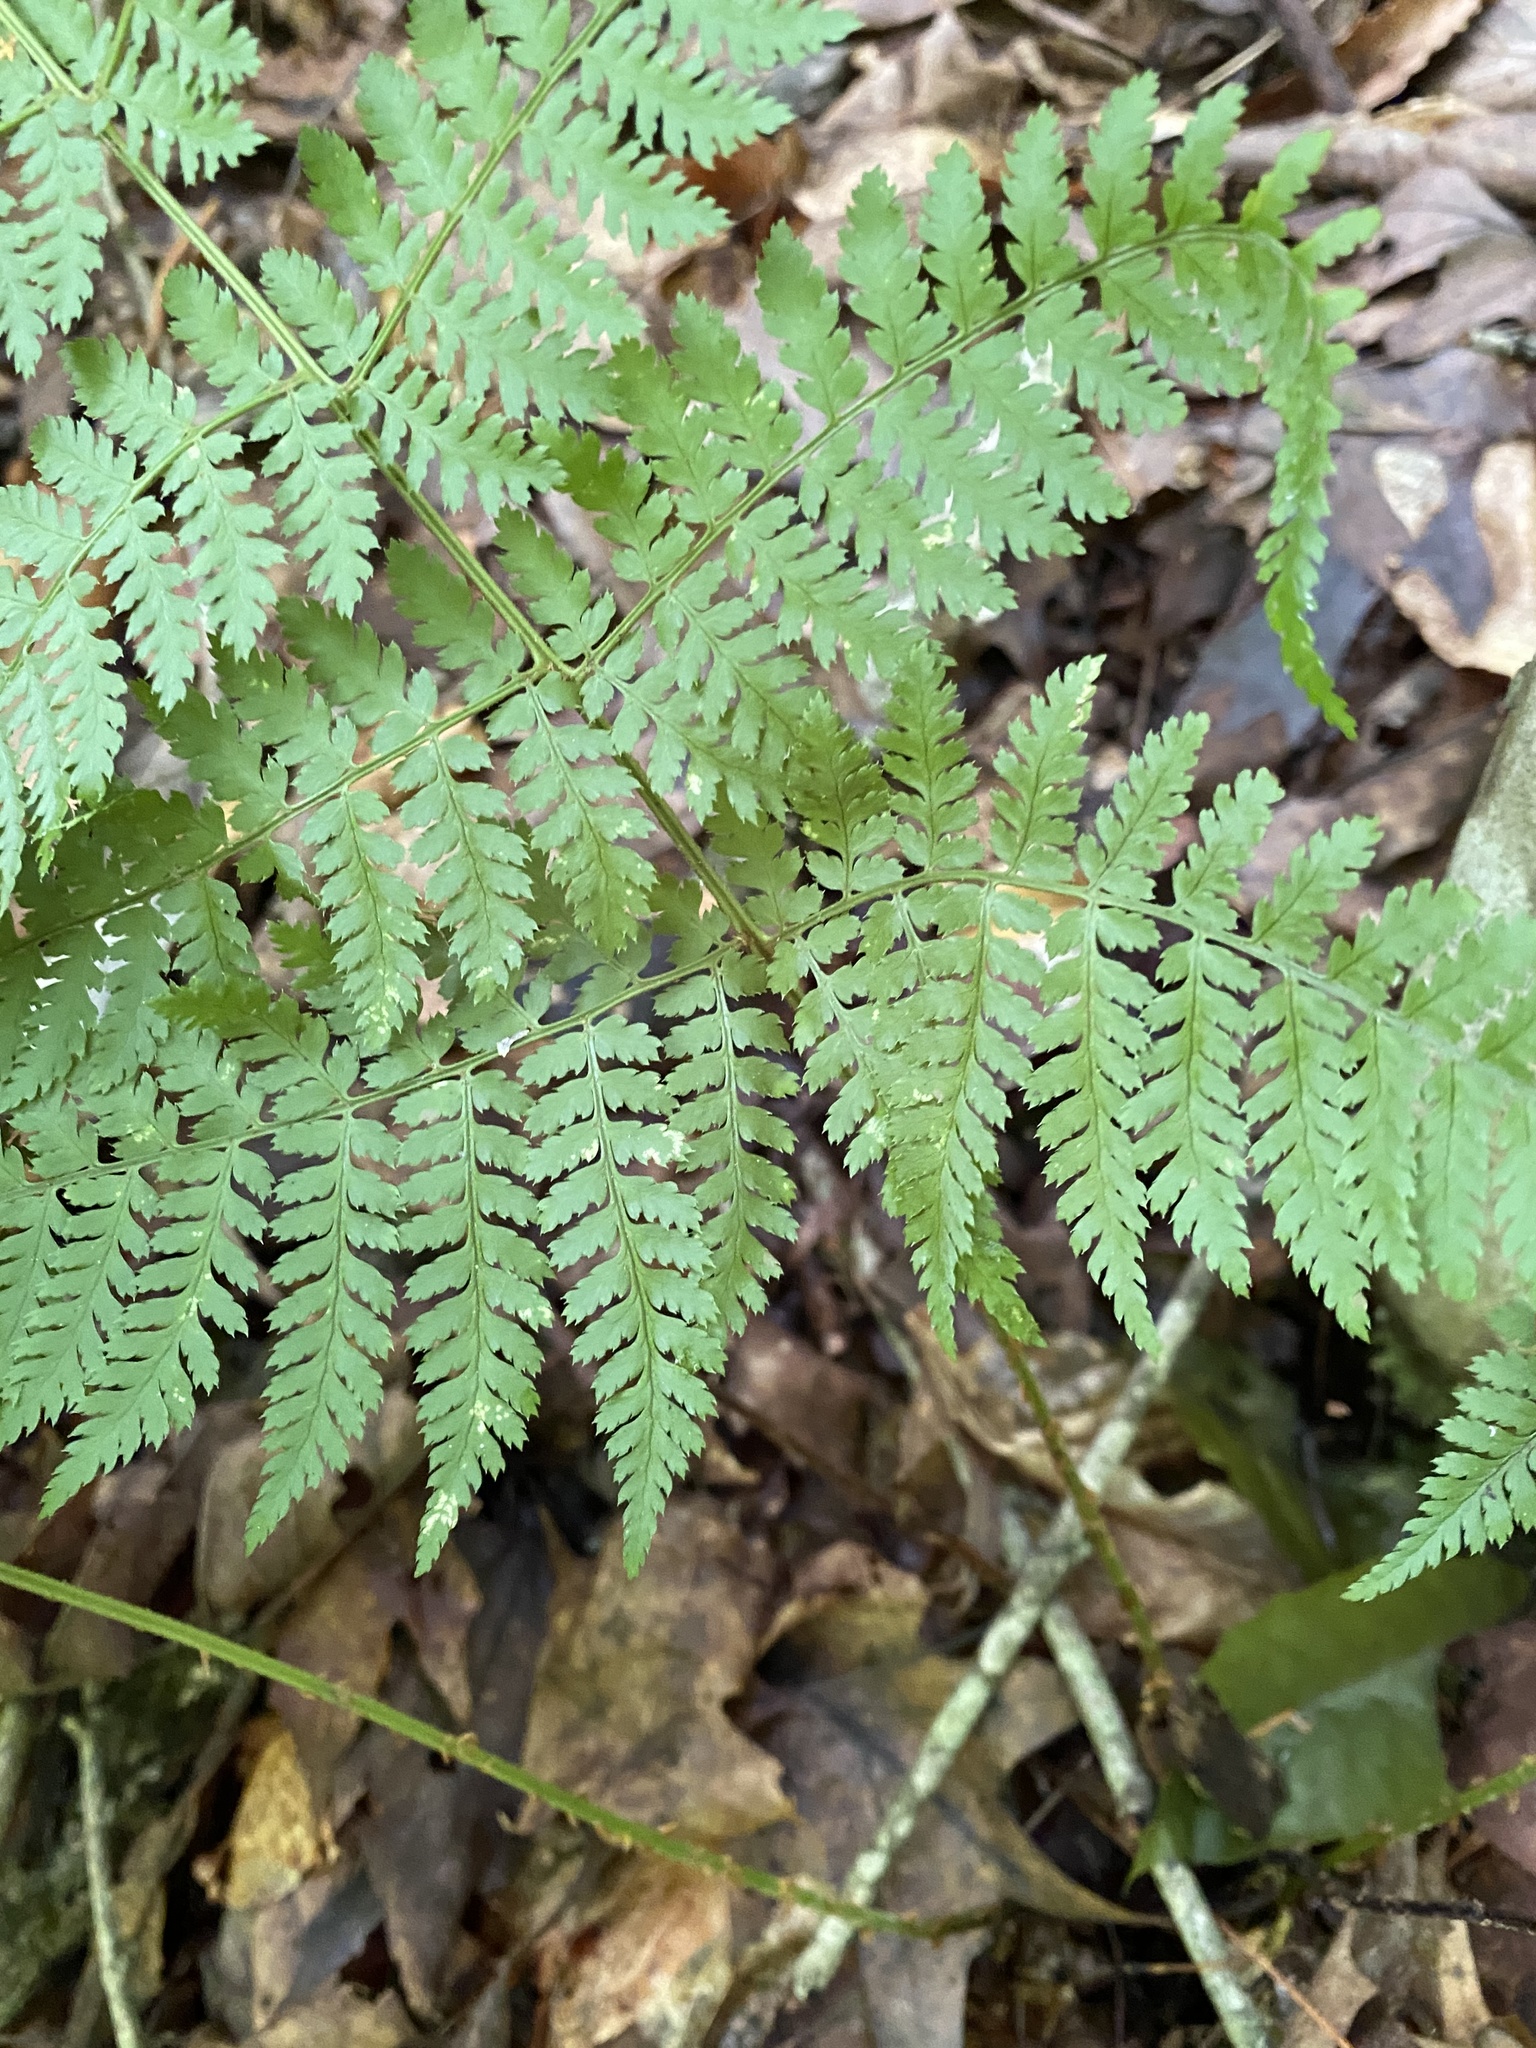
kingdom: Plantae
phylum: Tracheophyta
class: Polypodiopsida
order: Polypodiales
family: Dryopteridaceae
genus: Dryopteris
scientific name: Dryopteris intermedia
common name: Evergreen wood fern
